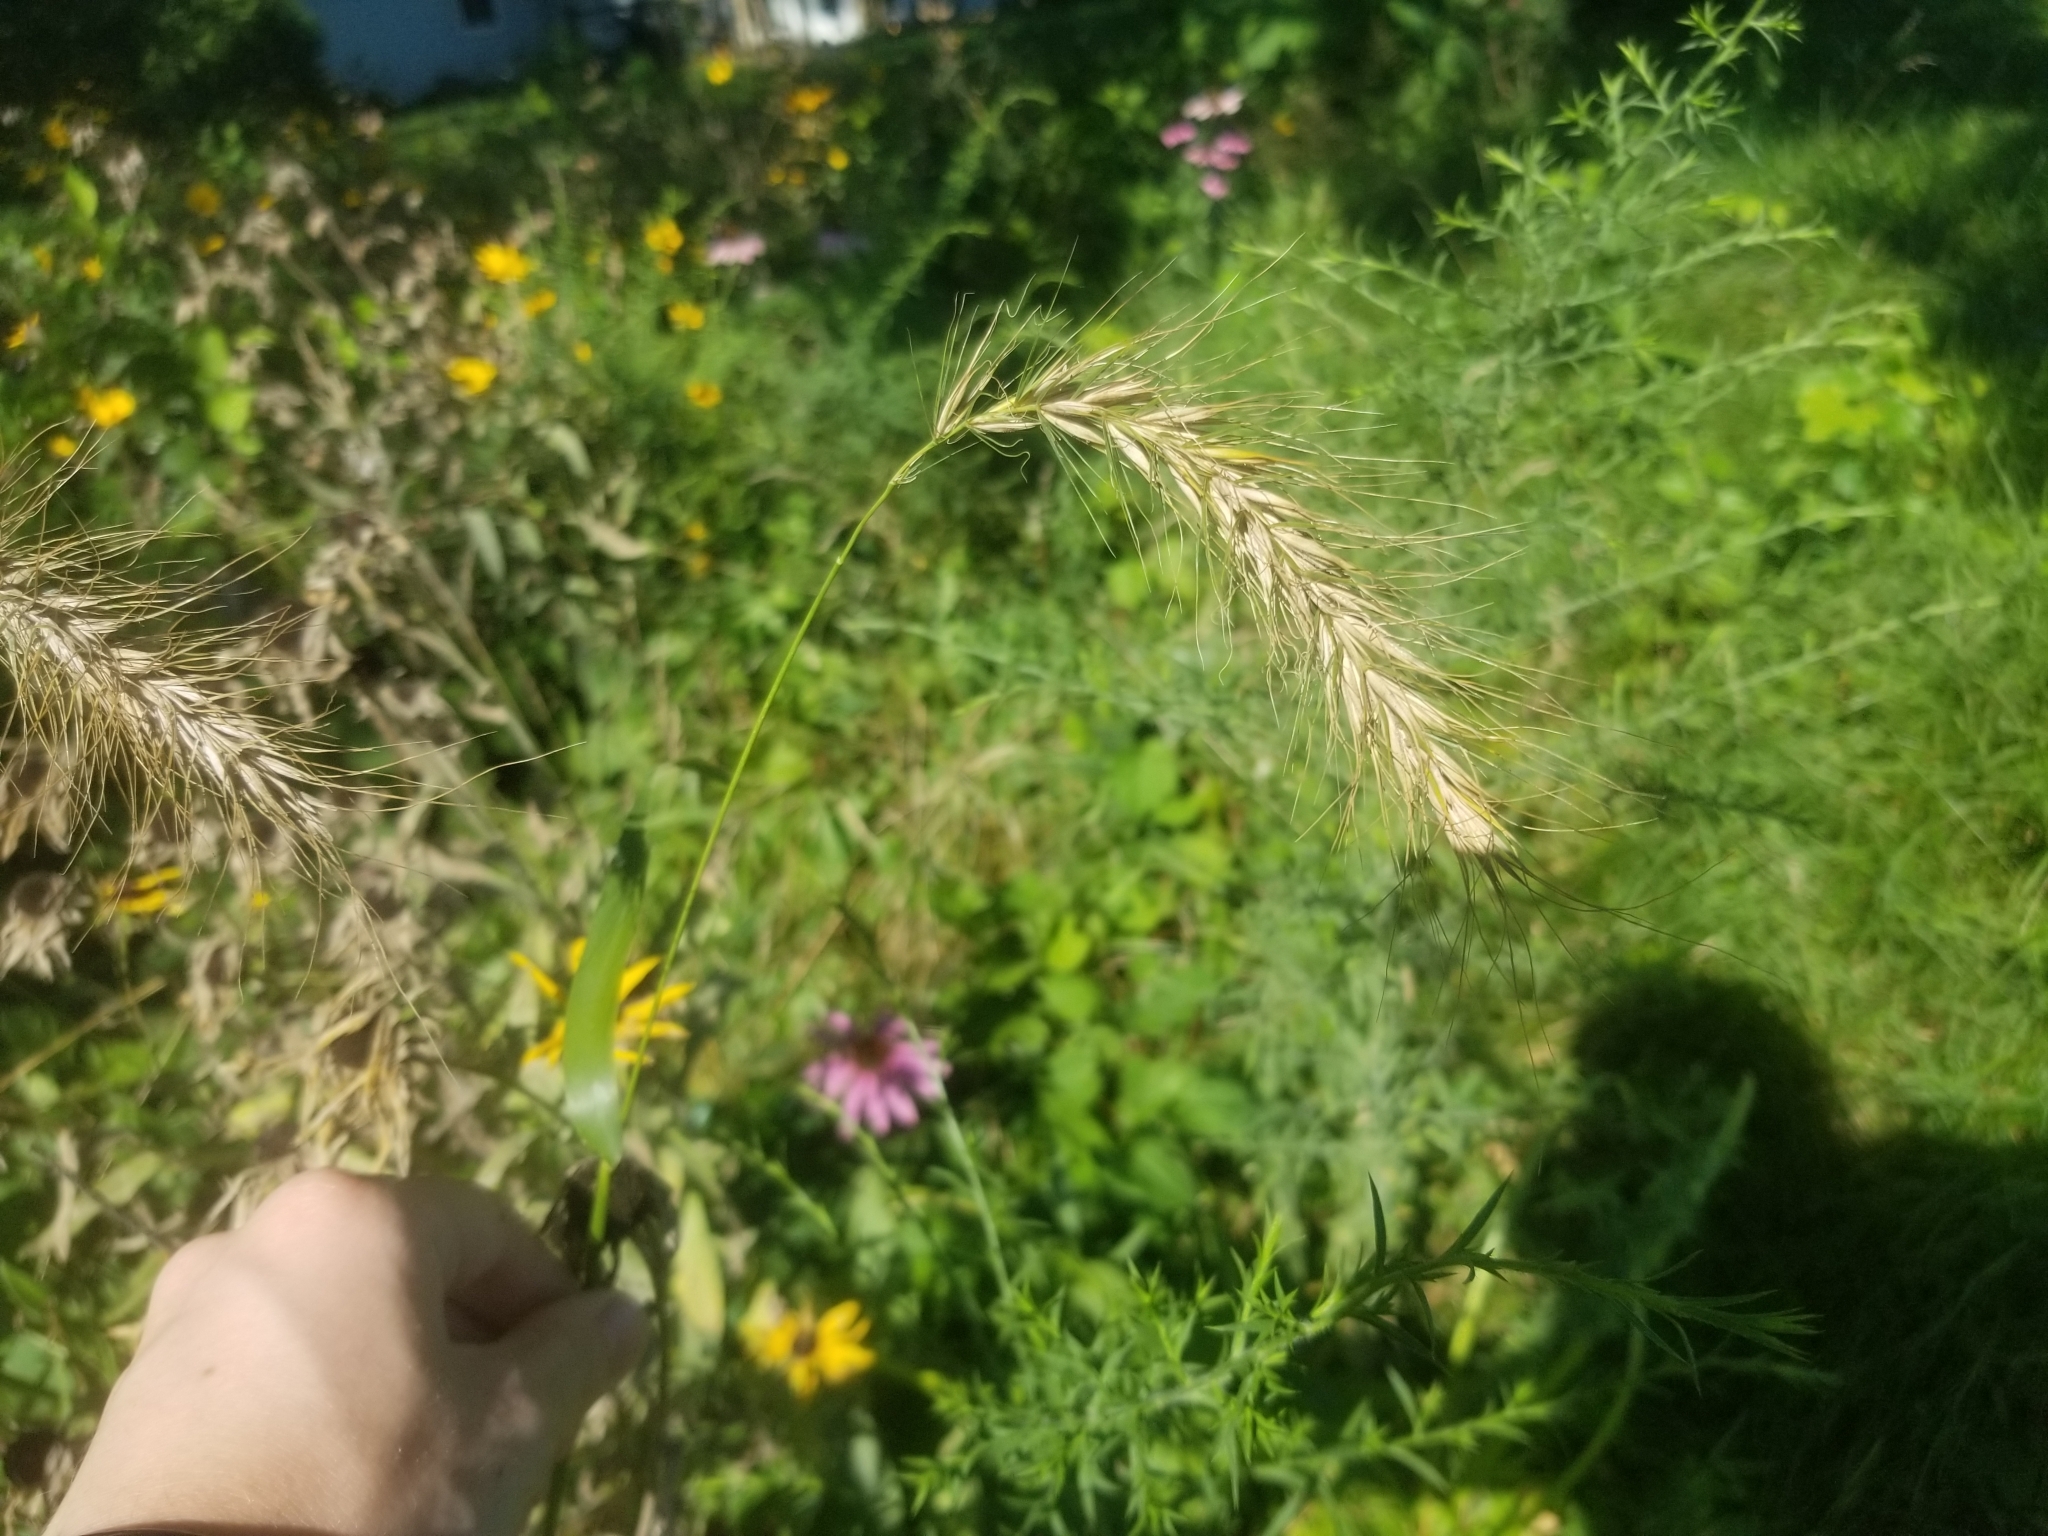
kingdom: Plantae
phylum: Tracheophyta
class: Liliopsida
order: Poales
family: Poaceae
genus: Elymus
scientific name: Elymus canadensis
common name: Canada wild rye
